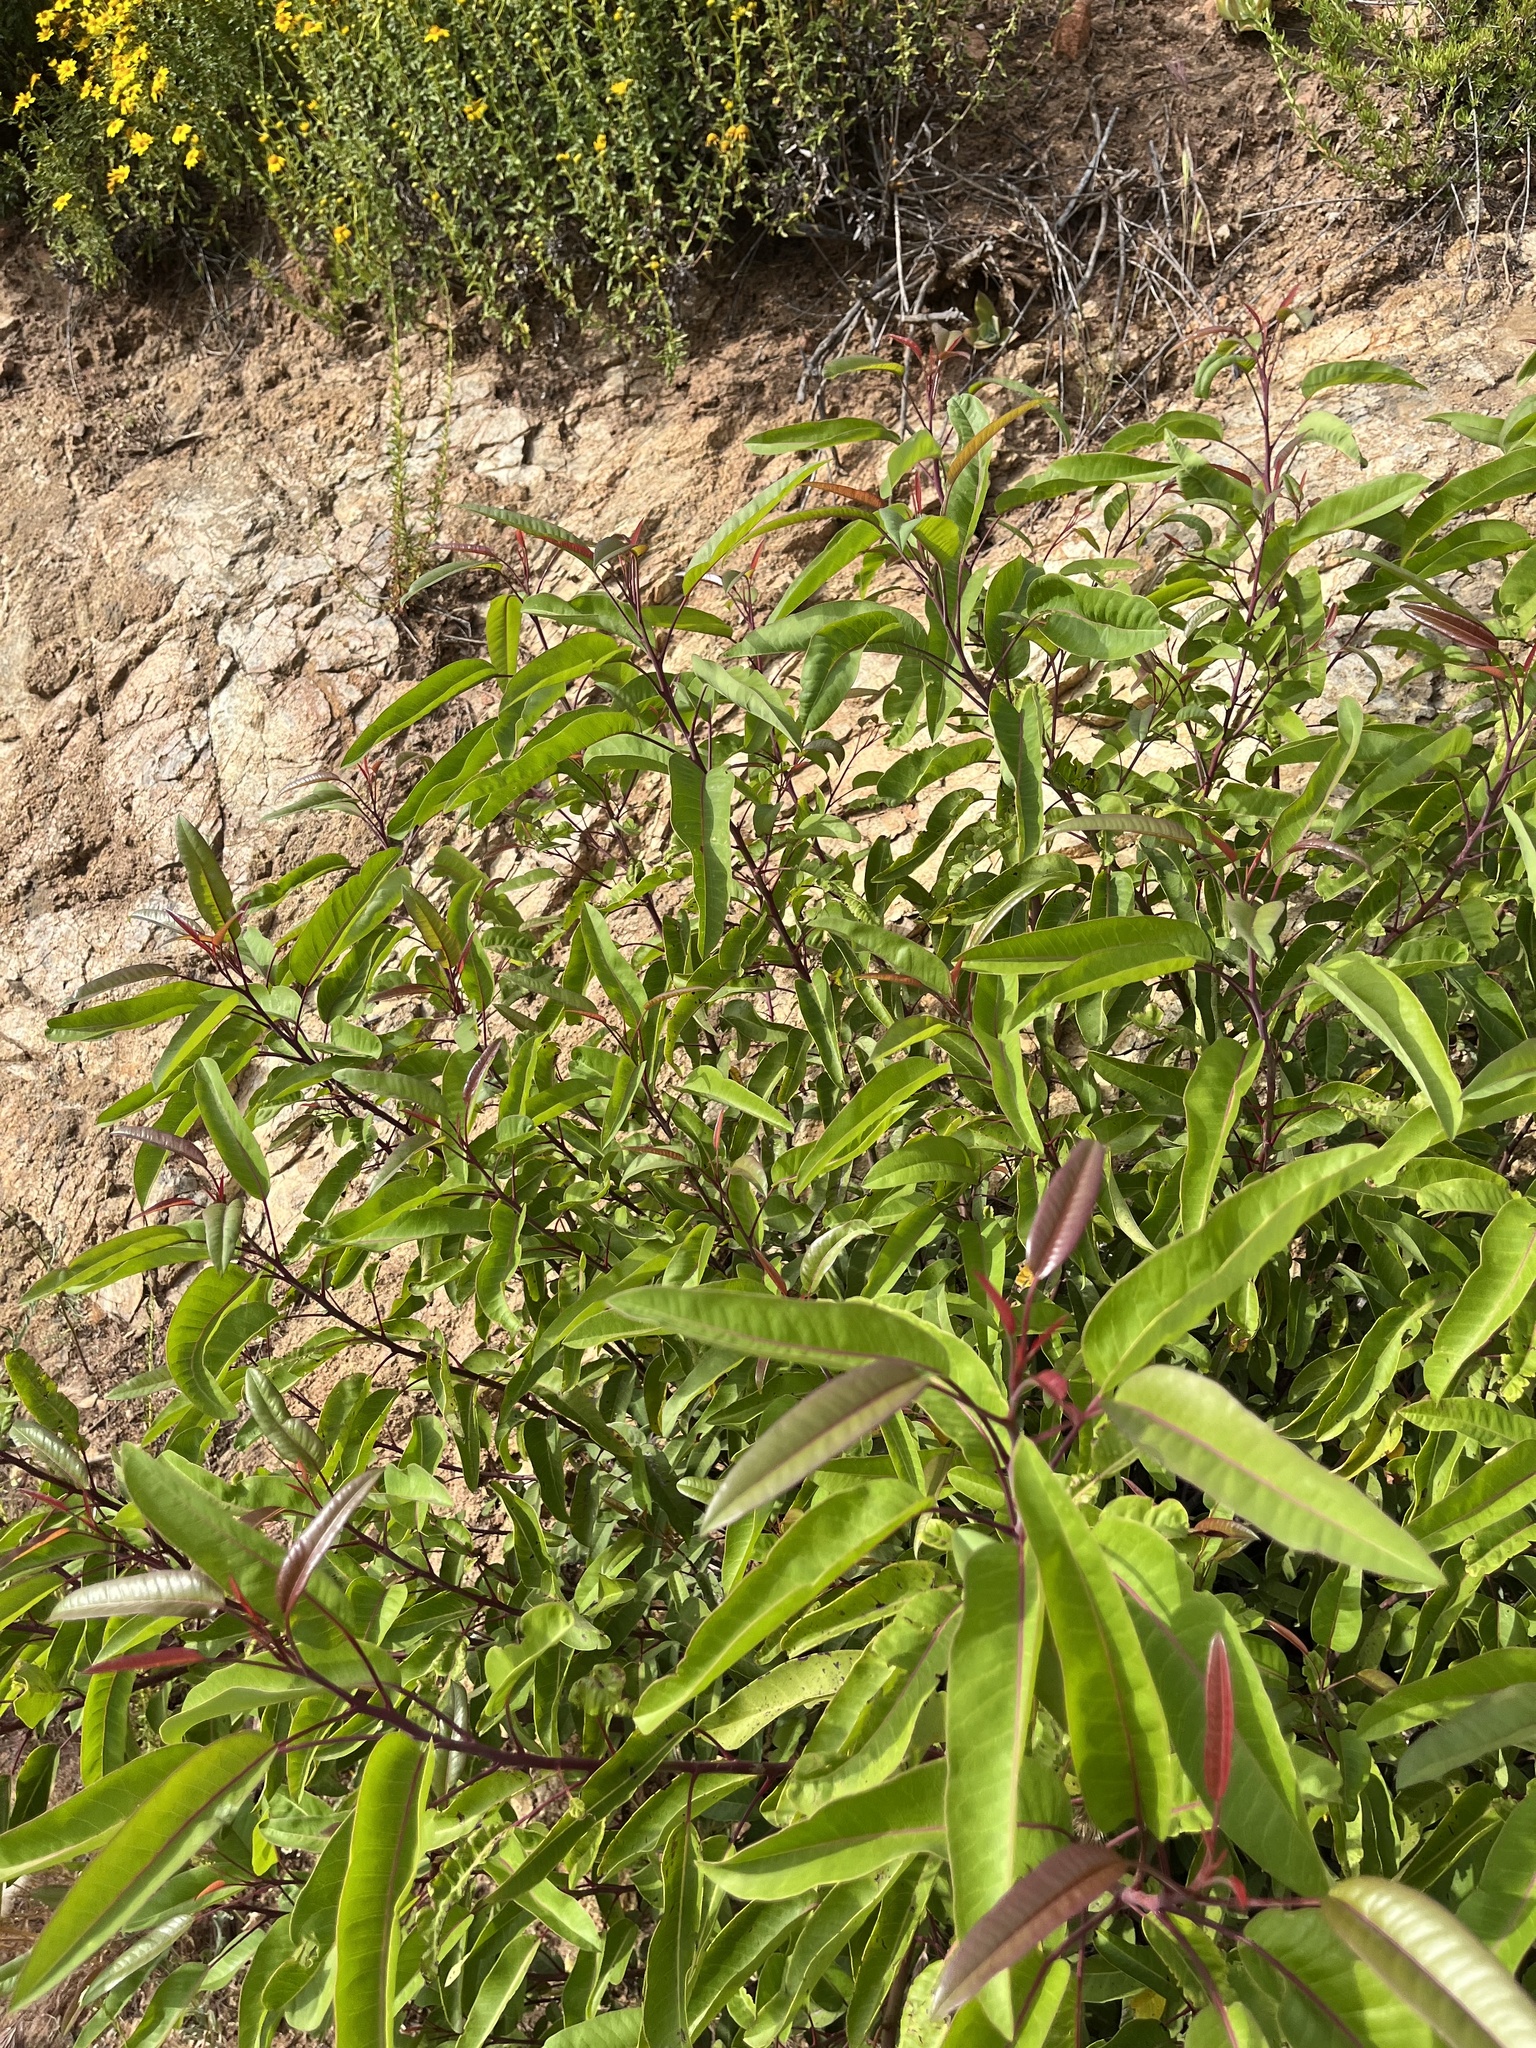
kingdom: Plantae
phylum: Tracheophyta
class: Magnoliopsida
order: Sapindales
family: Anacardiaceae
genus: Malosma
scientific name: Malosma laurina
